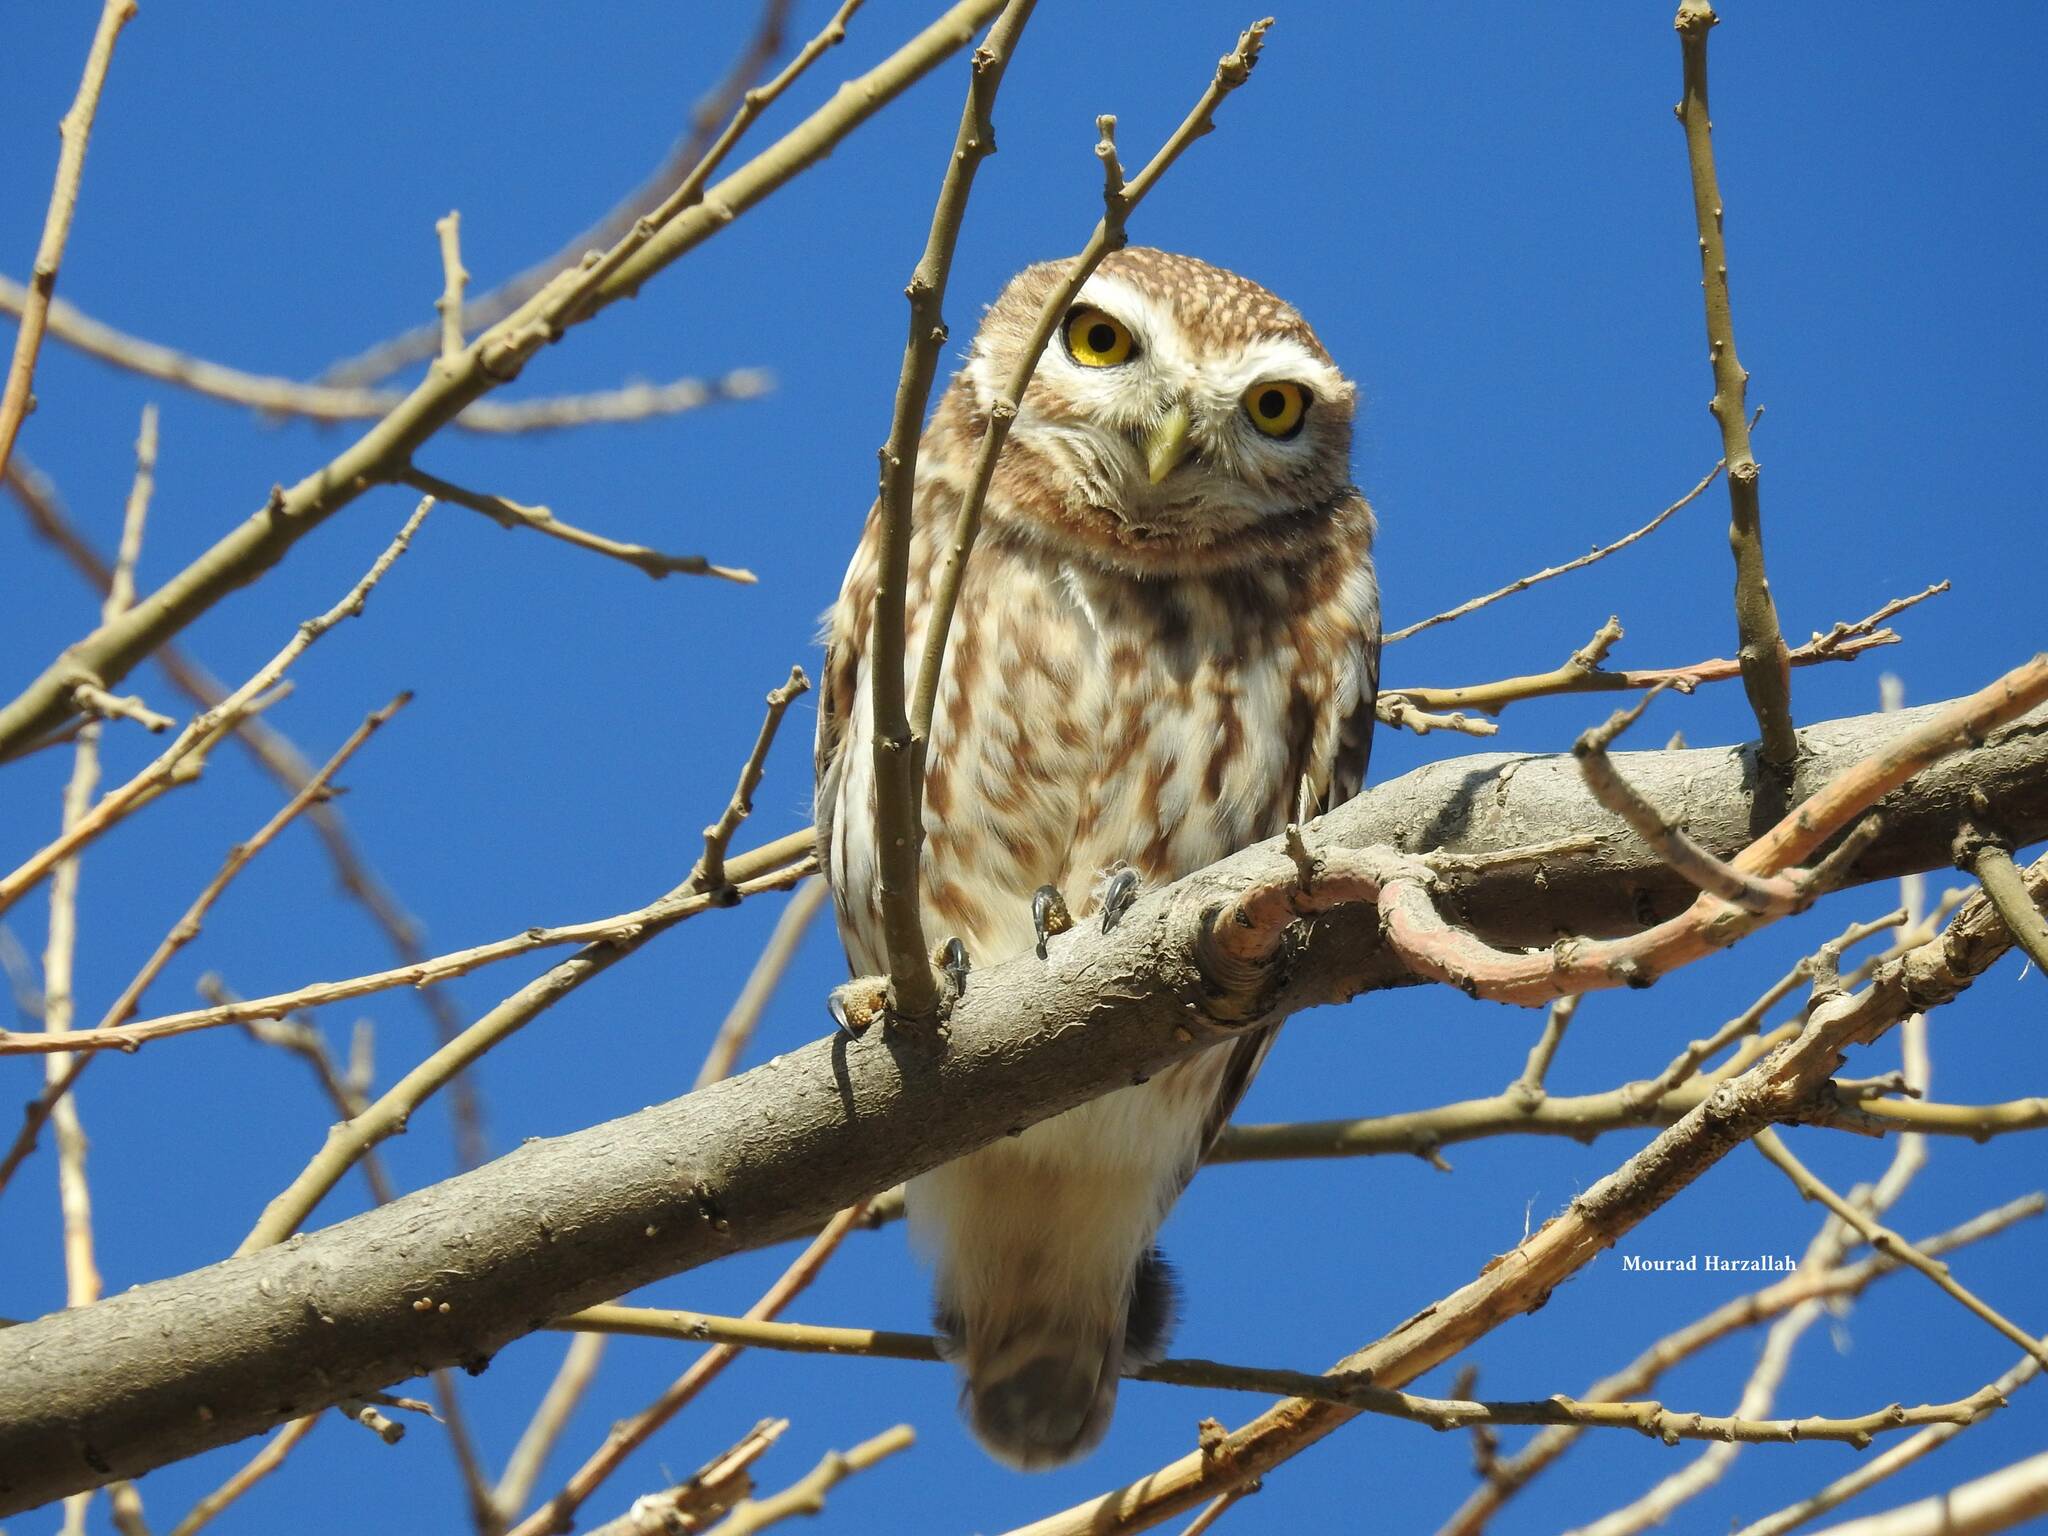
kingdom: Animalia
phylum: Chordata
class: Aves
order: Strigiformes
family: Strigidae
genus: Athene
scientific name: Athene noctua
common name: Little owl
